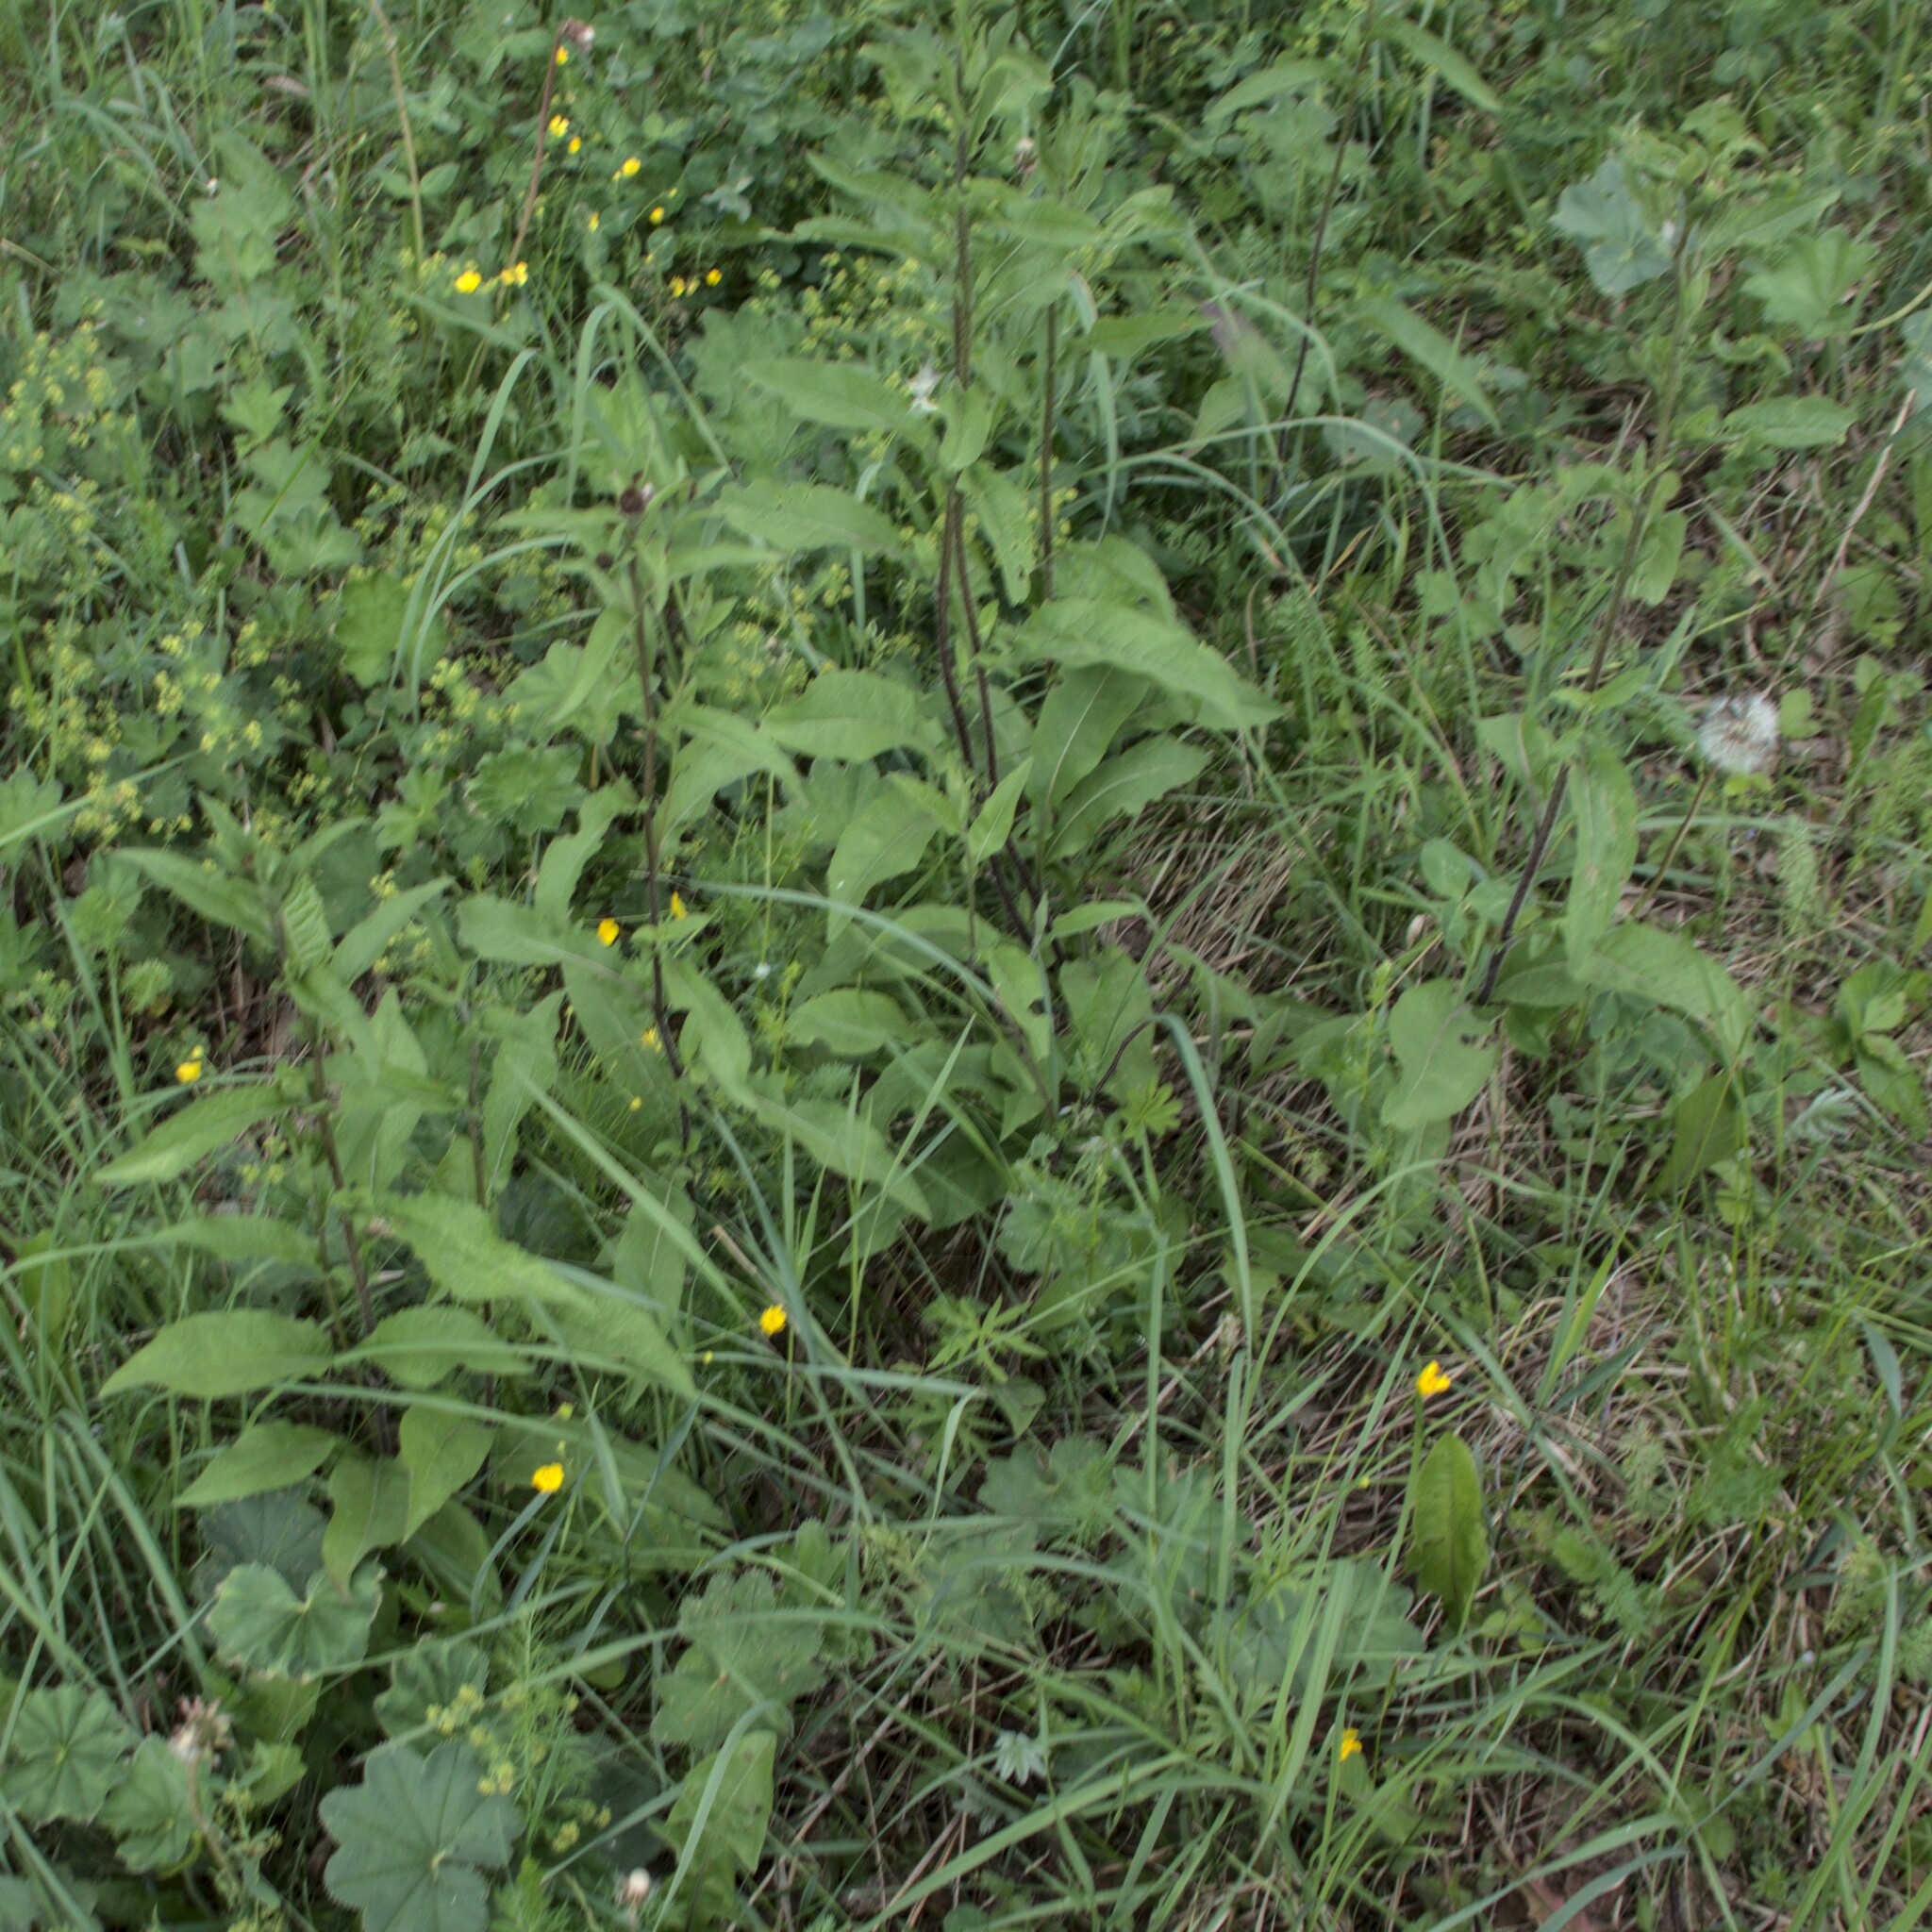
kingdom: Plantae
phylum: Tracheophyta
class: Magnoliopsida
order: Asterales
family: Asteraceae
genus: Centaurea
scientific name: Centaurea phrygia
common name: Wig knapweed
